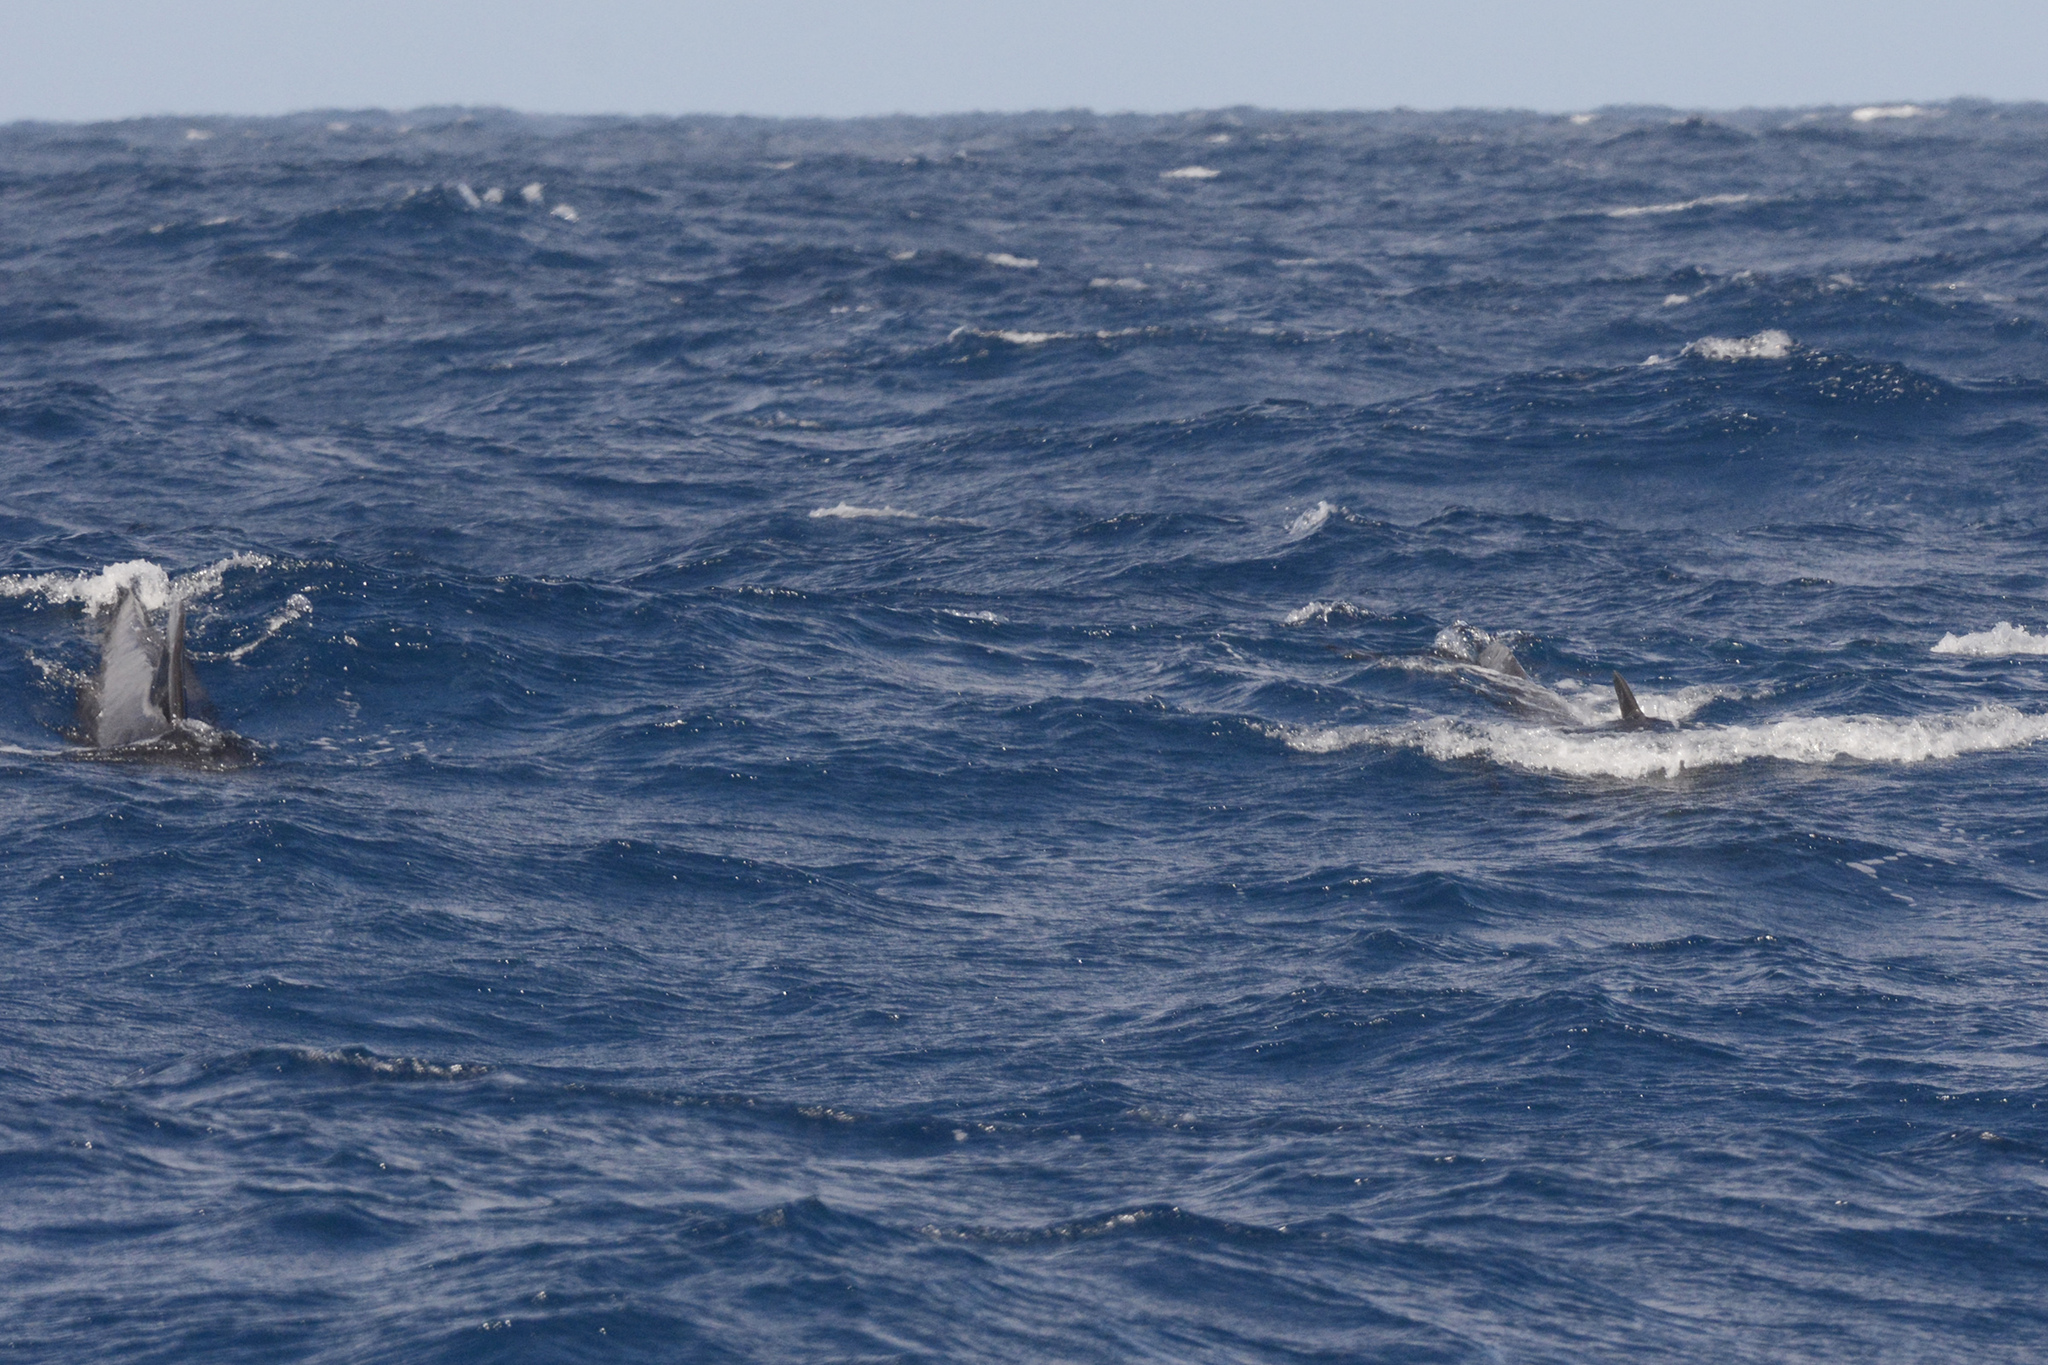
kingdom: Animalia
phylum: Chordata
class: Mammalia
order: Cetacea
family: Delphinidae
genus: Globicephala
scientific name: Globicephala macrorhynchus
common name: Short-finned pilot whale
